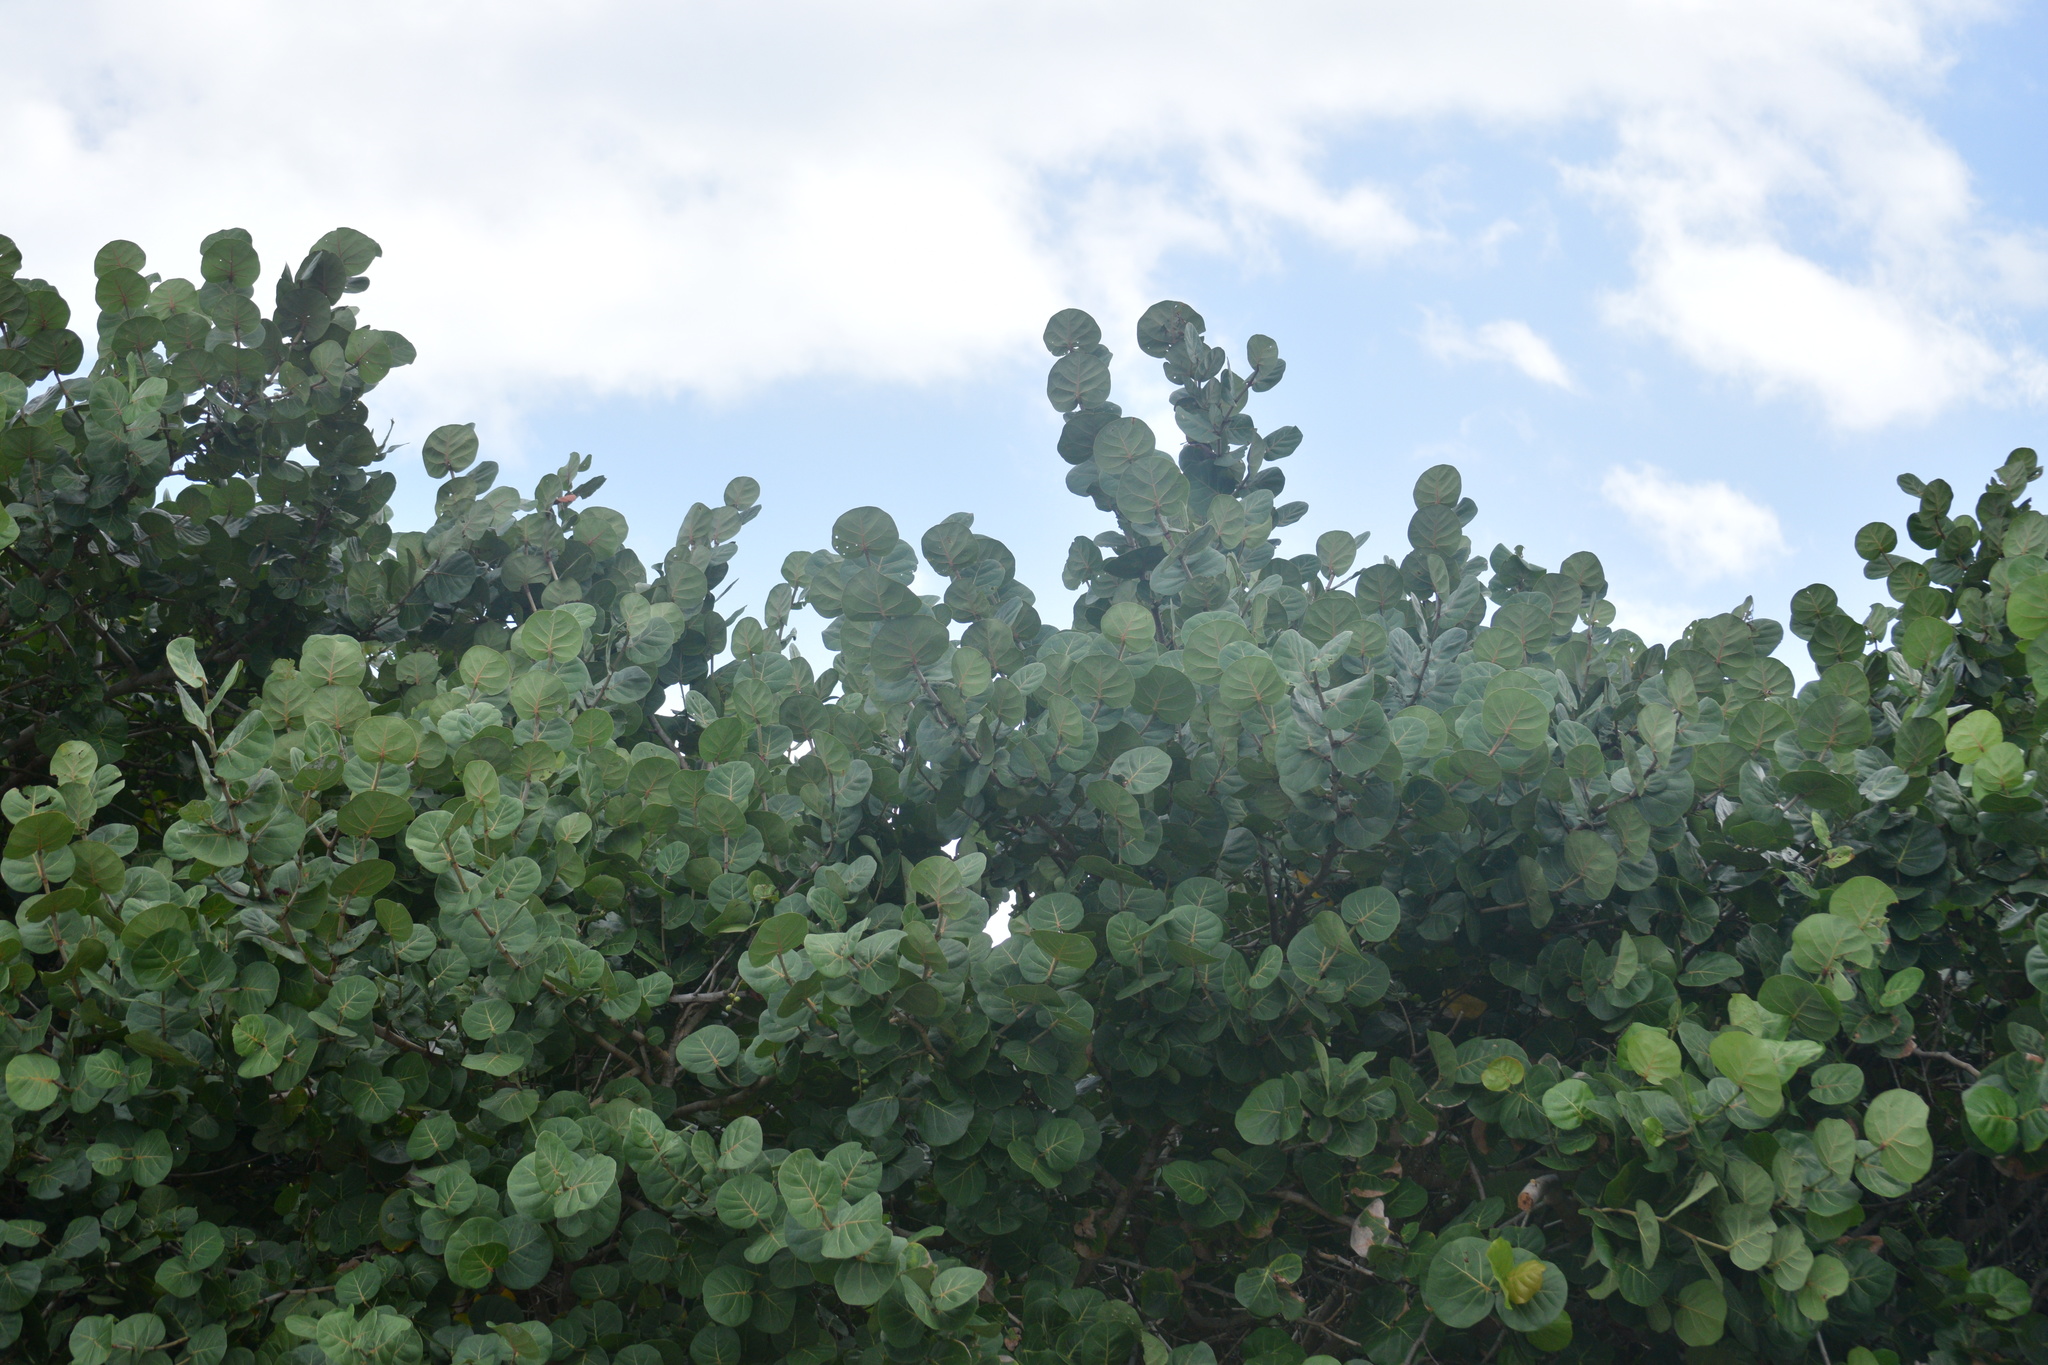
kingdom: Plantae
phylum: Tracheophyta
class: Magnoliopsida
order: Caryophyllales
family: Polygonaceae
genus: Coccoloba
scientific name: Coccoloba uvifera
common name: Seagrape
